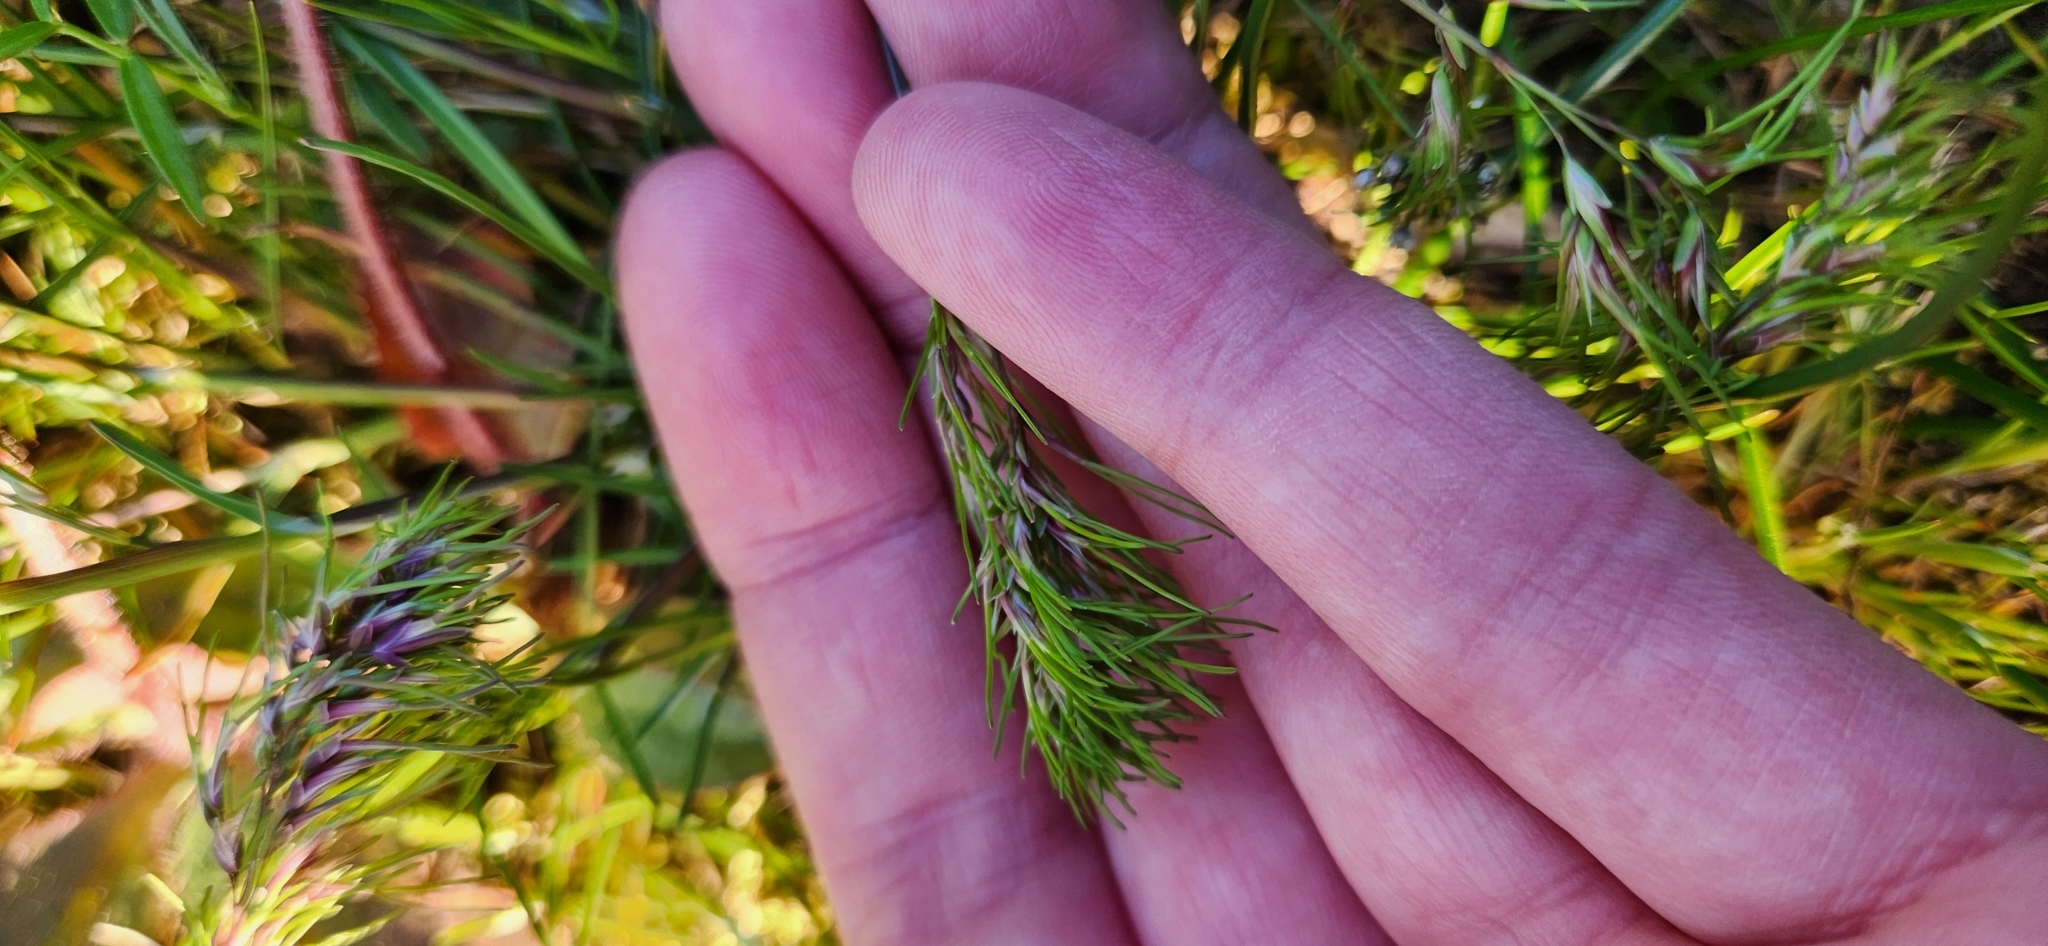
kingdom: Plantae
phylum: Tracheophyta
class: Liliopsida
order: Poales
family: Poaceae
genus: Poa
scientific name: Poa bulbosa
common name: Bulbous bluegrass
